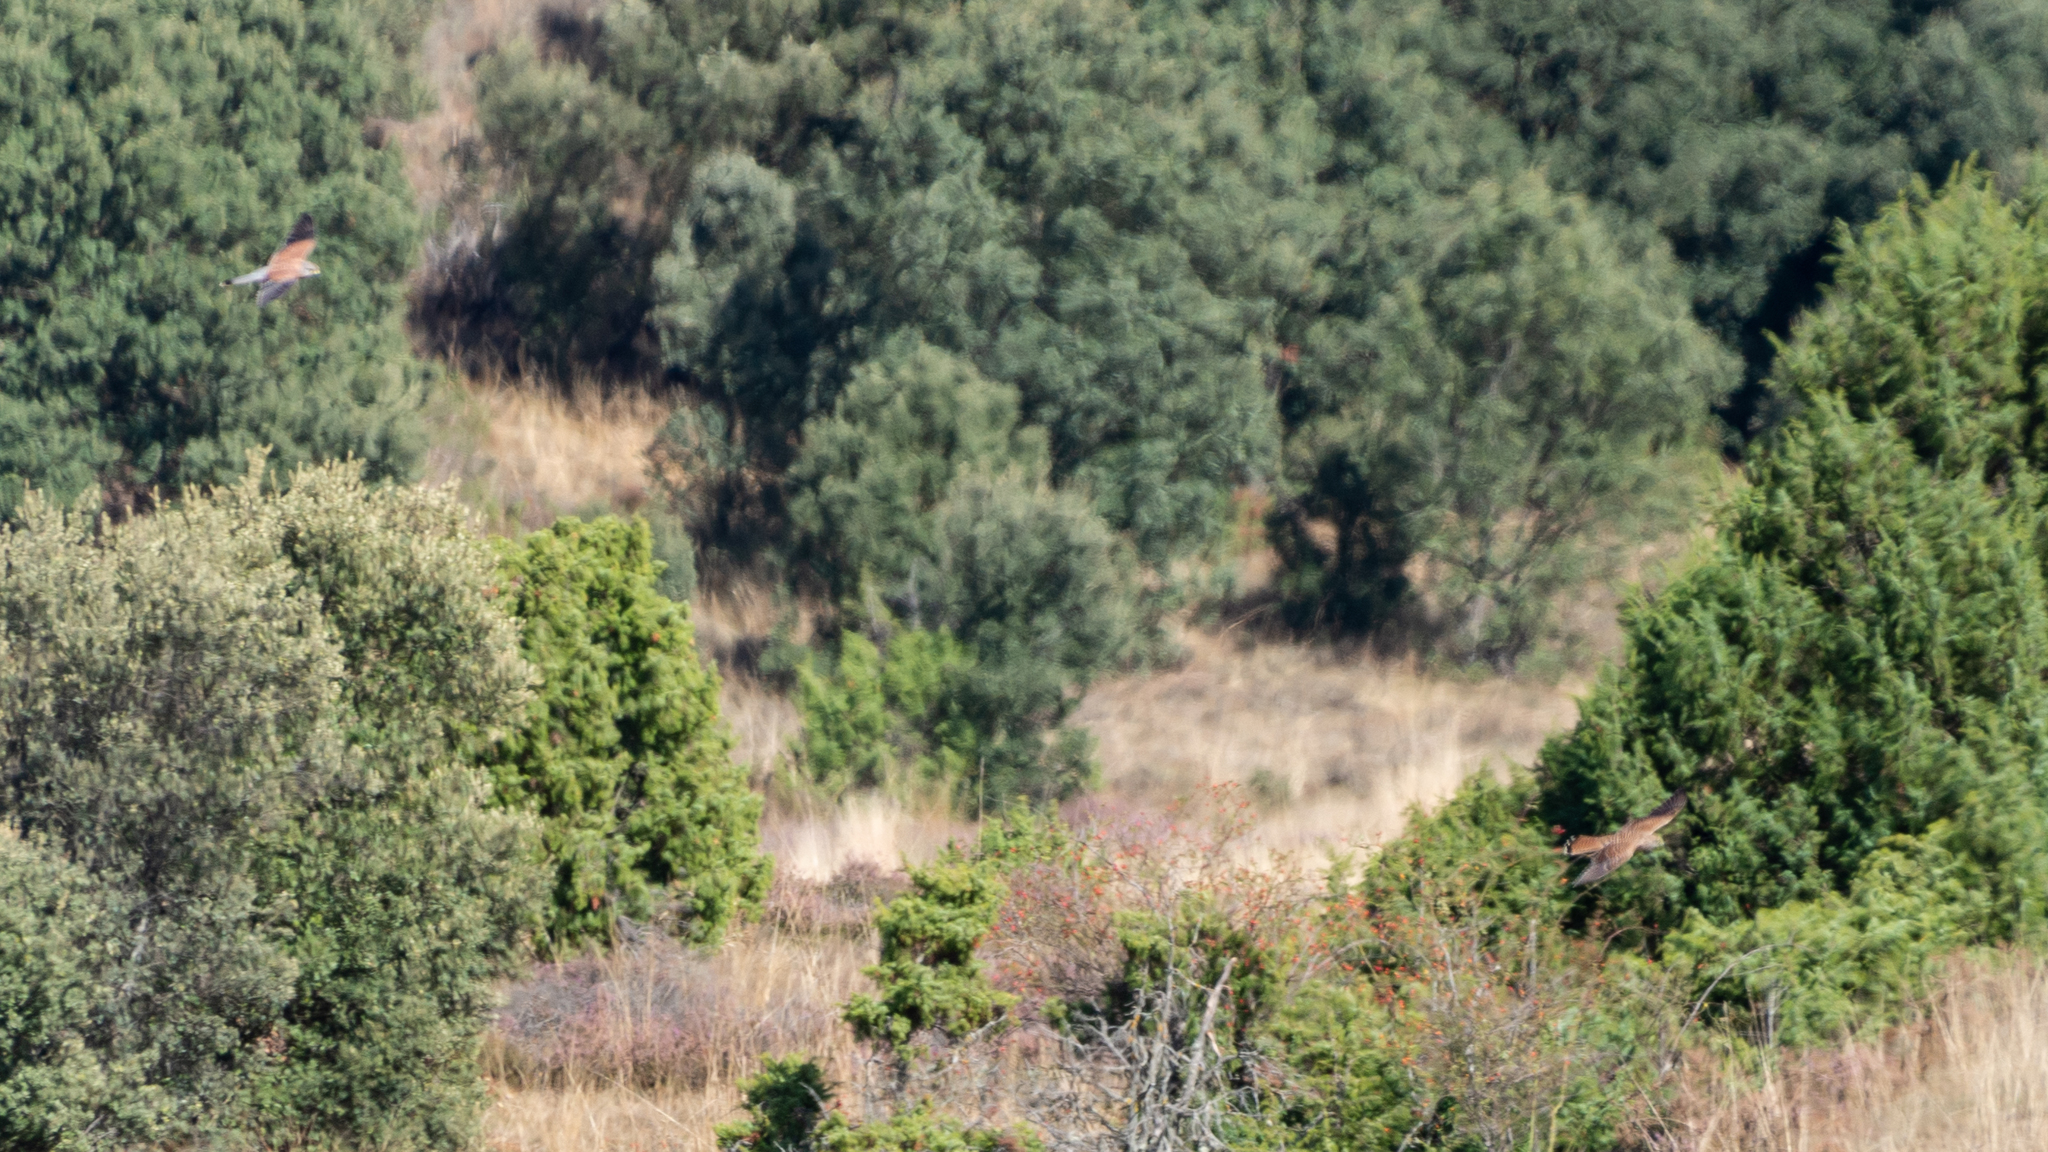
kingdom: Animalia
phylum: Chordata
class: Aves
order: Falconiformes
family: Falconidae
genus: Falco
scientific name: Falco tinnunculus
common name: Common kestrel
